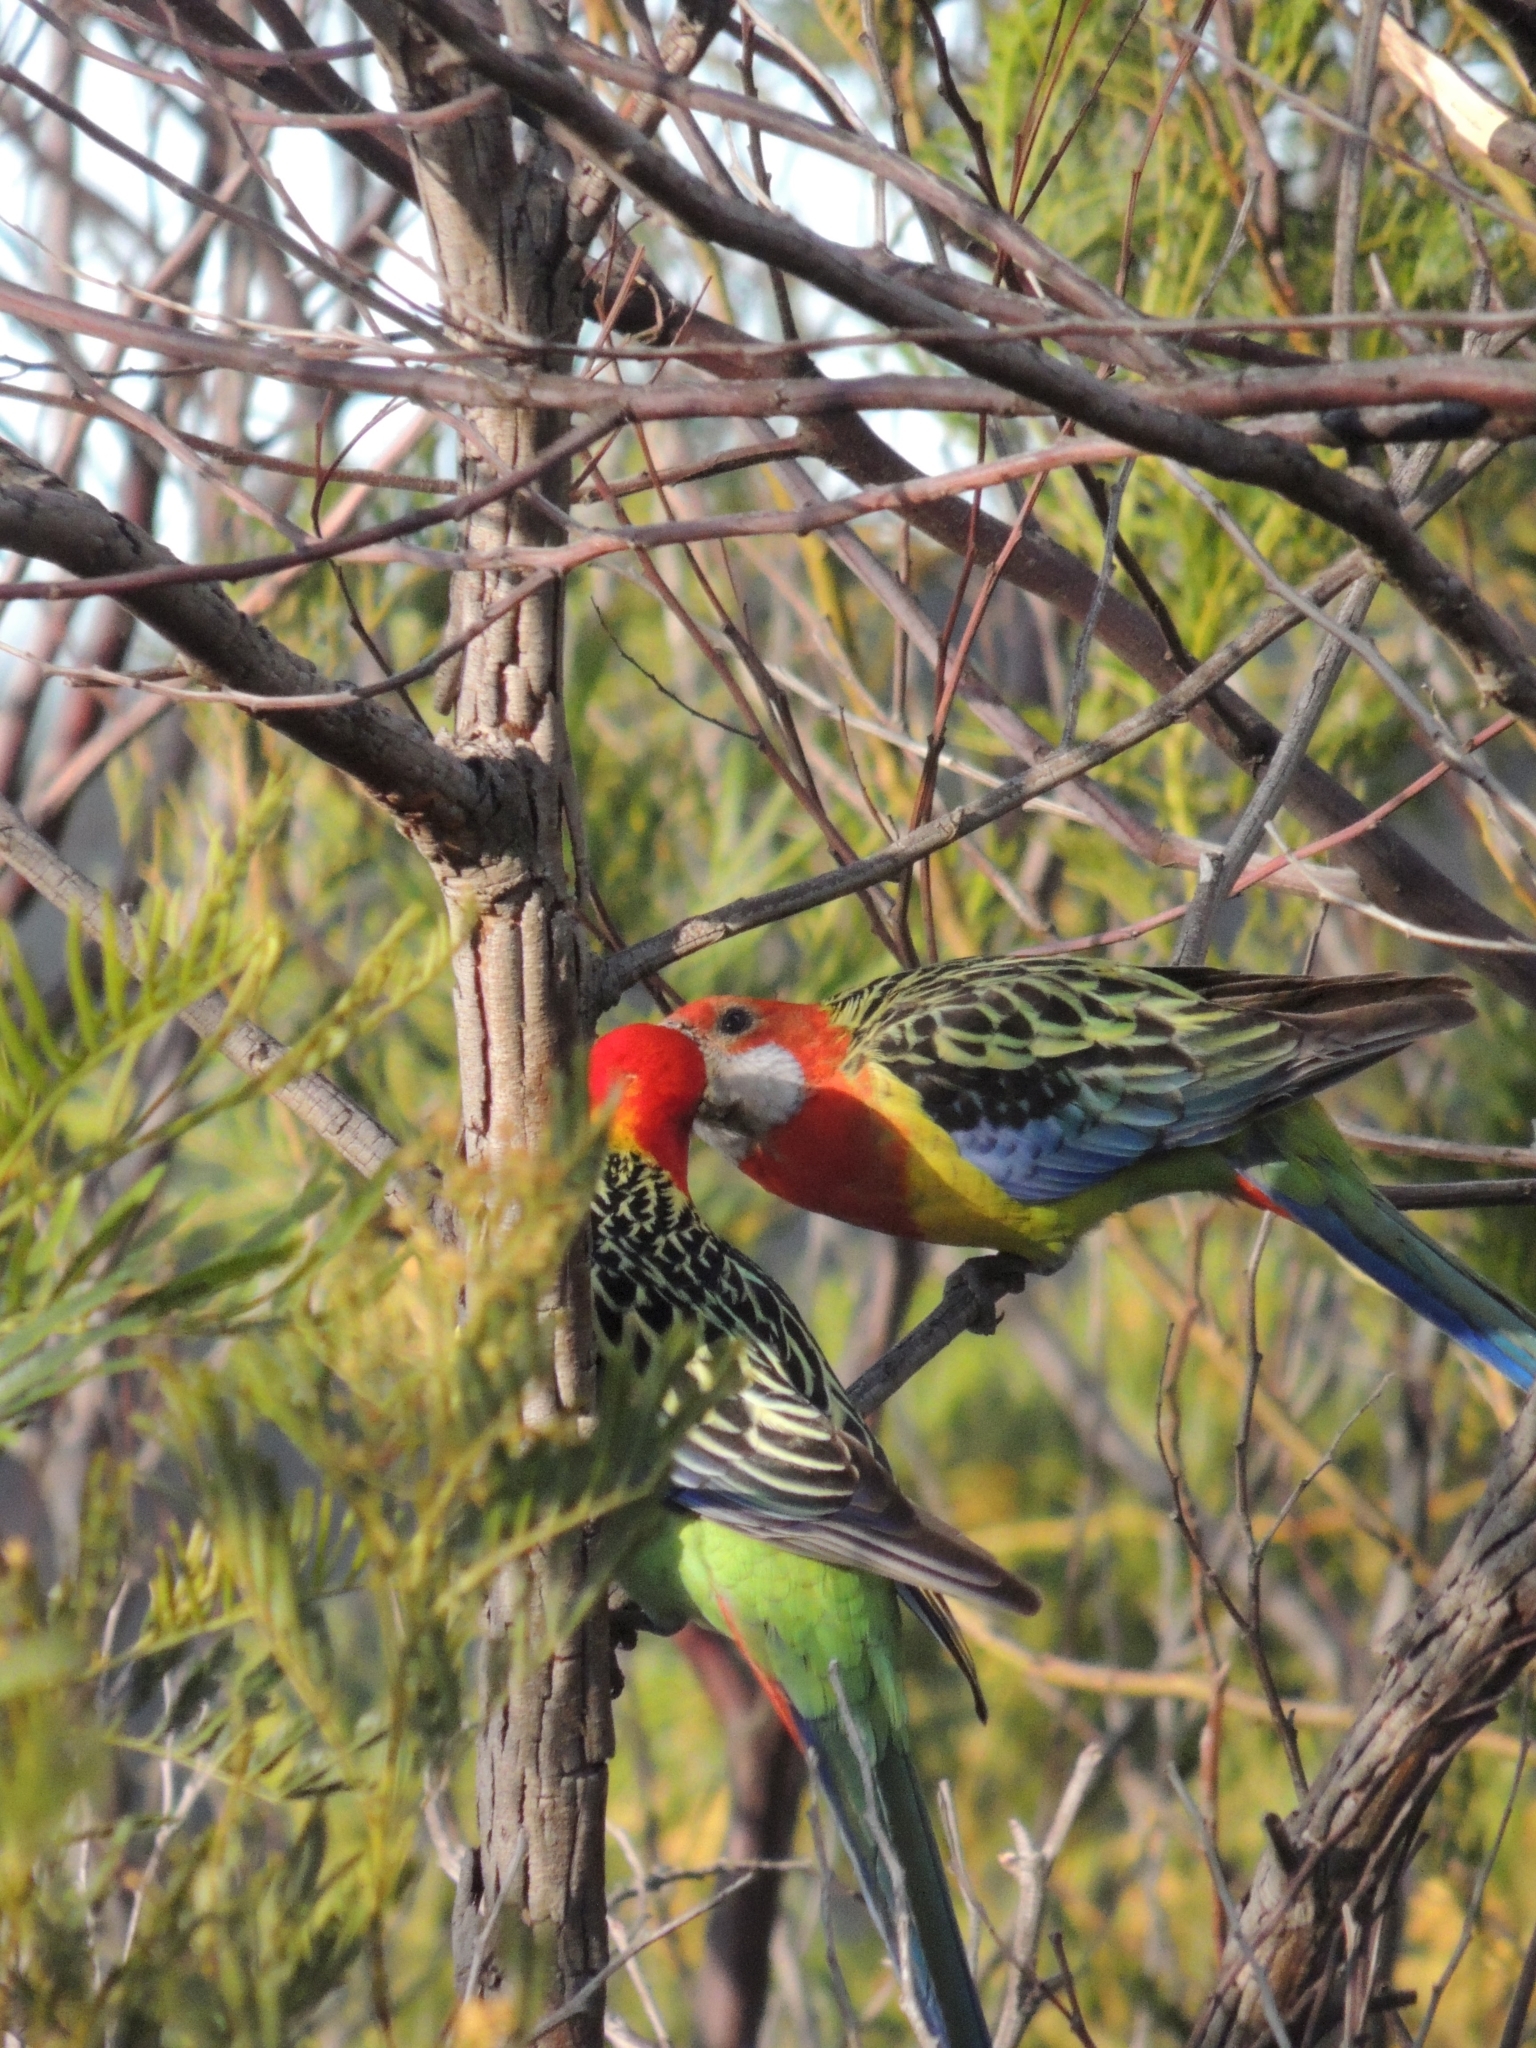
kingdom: Animalia
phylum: Chordata
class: Aves
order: Psittaciformes
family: Psittacidae
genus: Platycercus
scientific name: Platycercus eximius
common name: Eastern rosella
